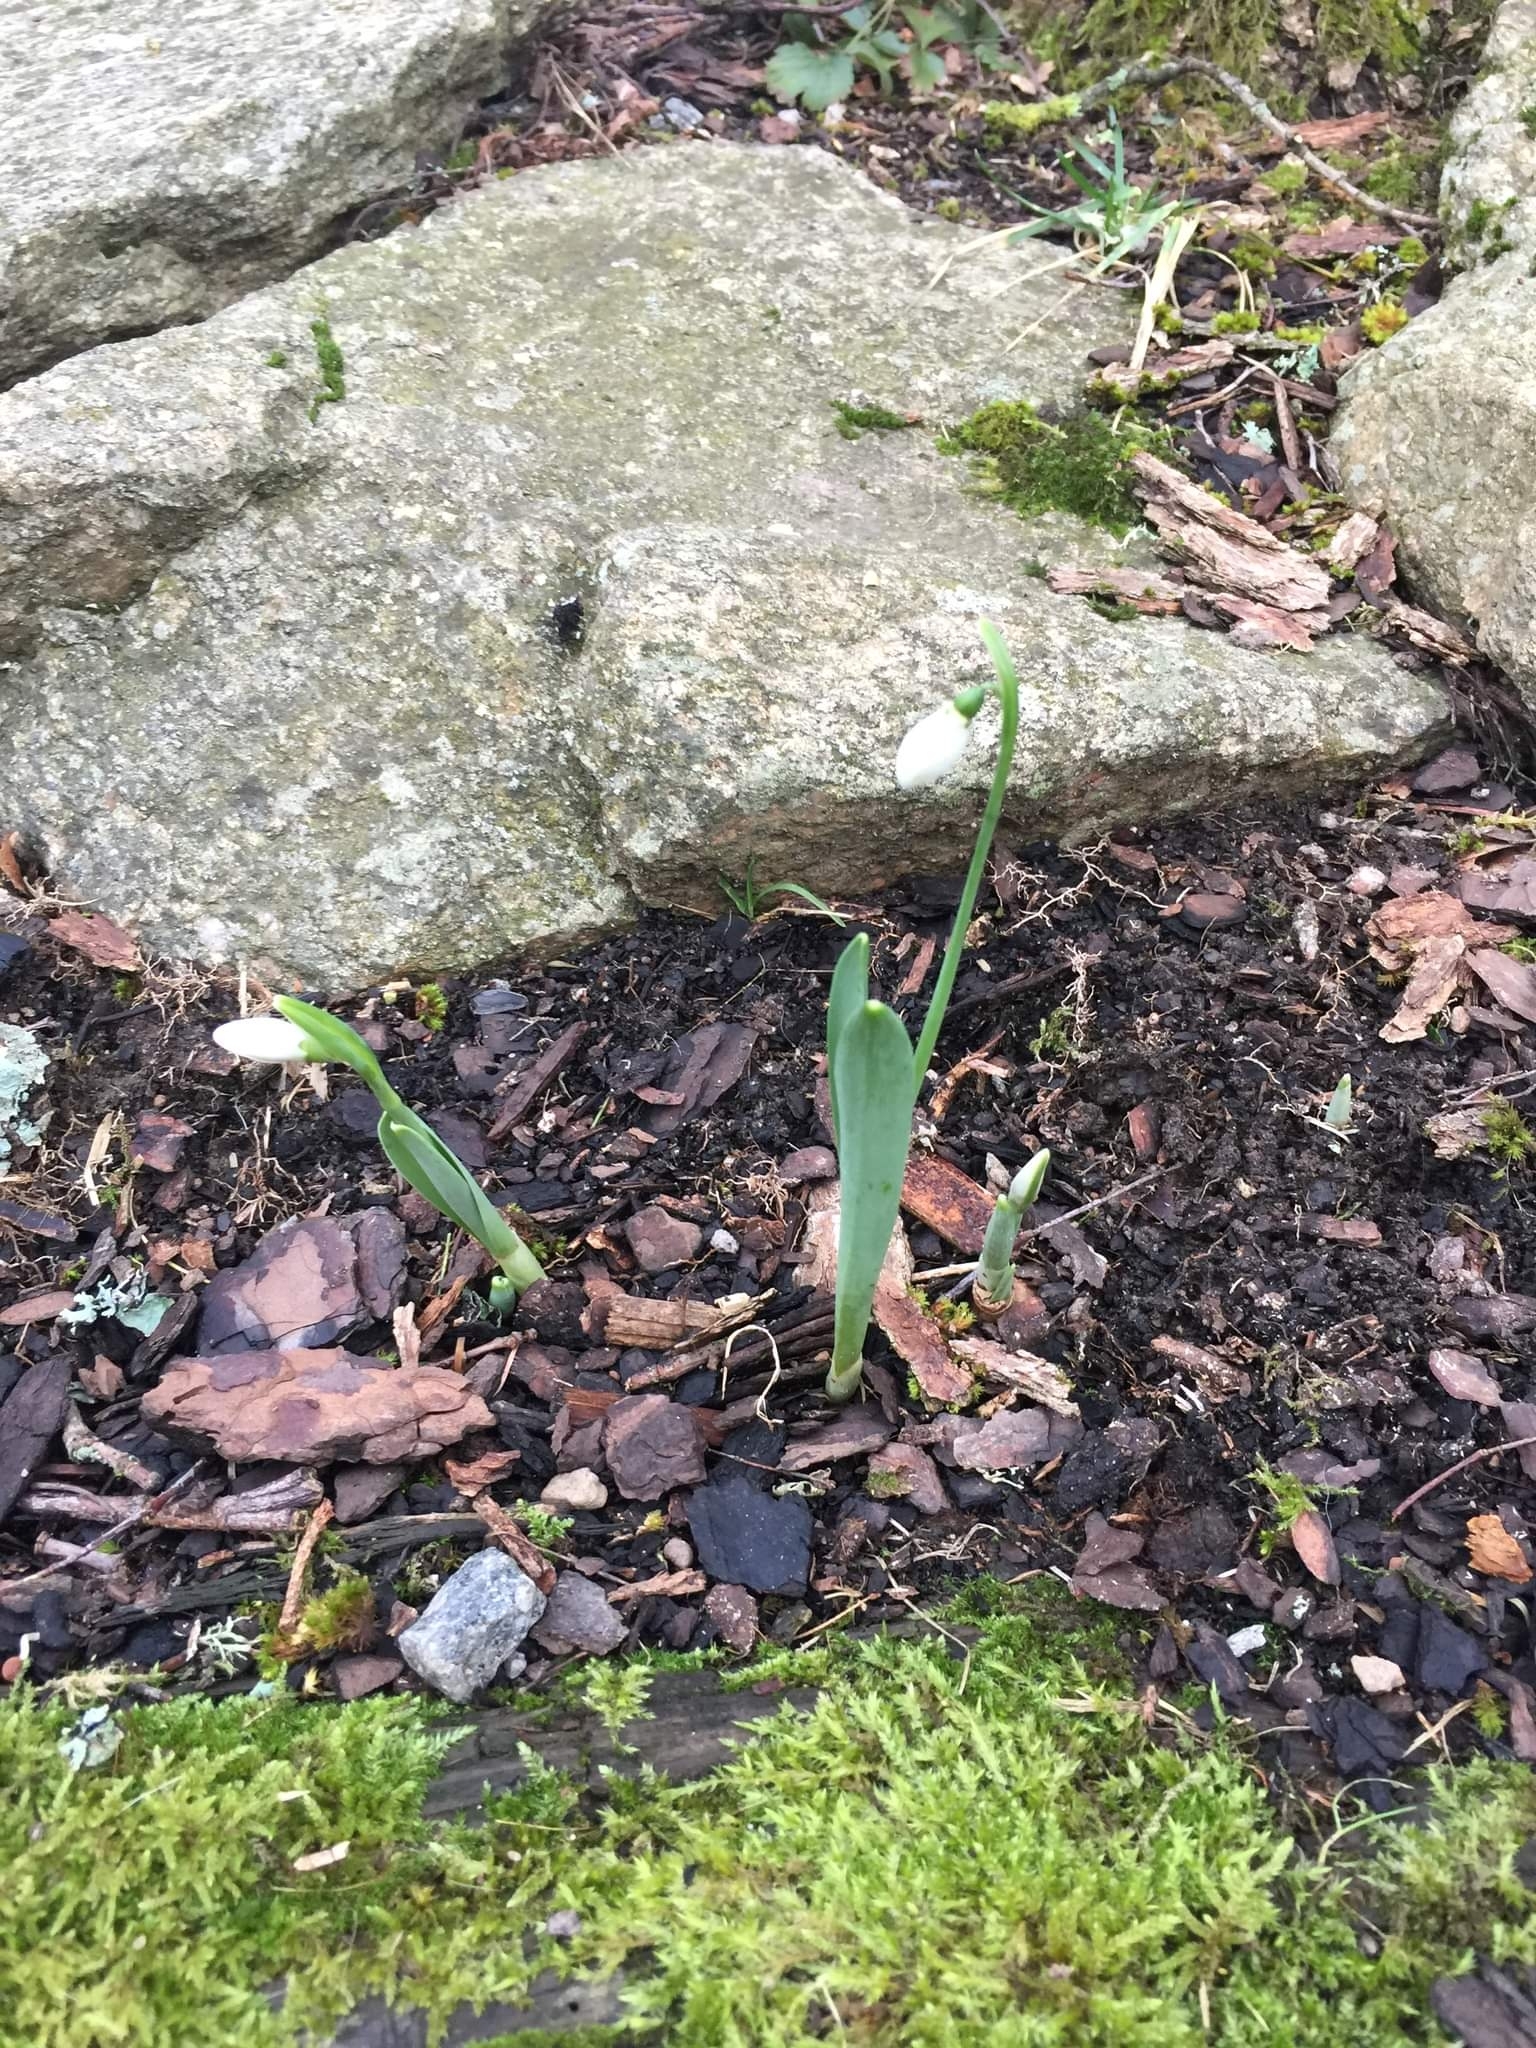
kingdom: Plantae
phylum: Tracheophyta
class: Liliopsida
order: Asparagales
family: Amaryllidaceae
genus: Galanthus
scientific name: Galanthus elwesii
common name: Greater snowdrop
